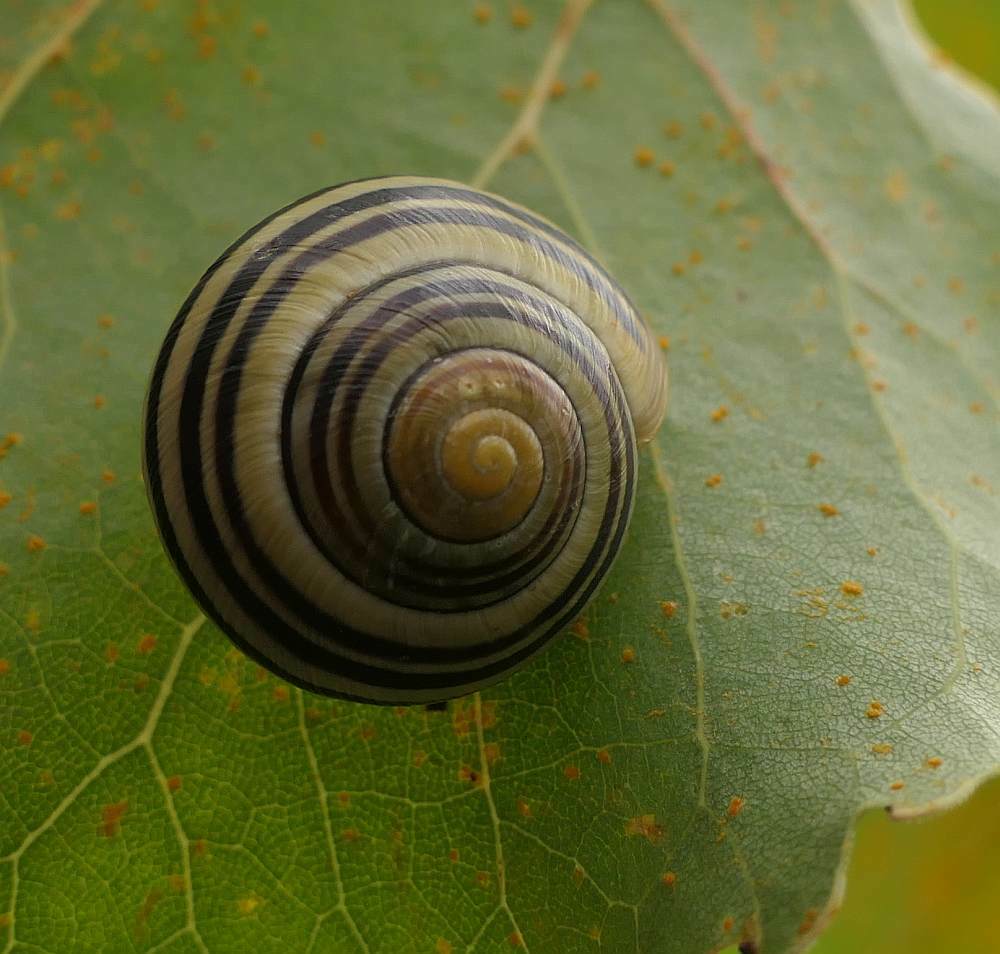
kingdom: Animalia
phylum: Mollusca
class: Gastropoda
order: Stylommatophora
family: Helicidae
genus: Cepaea
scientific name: Cepaea nemoralis
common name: Grovesnail
